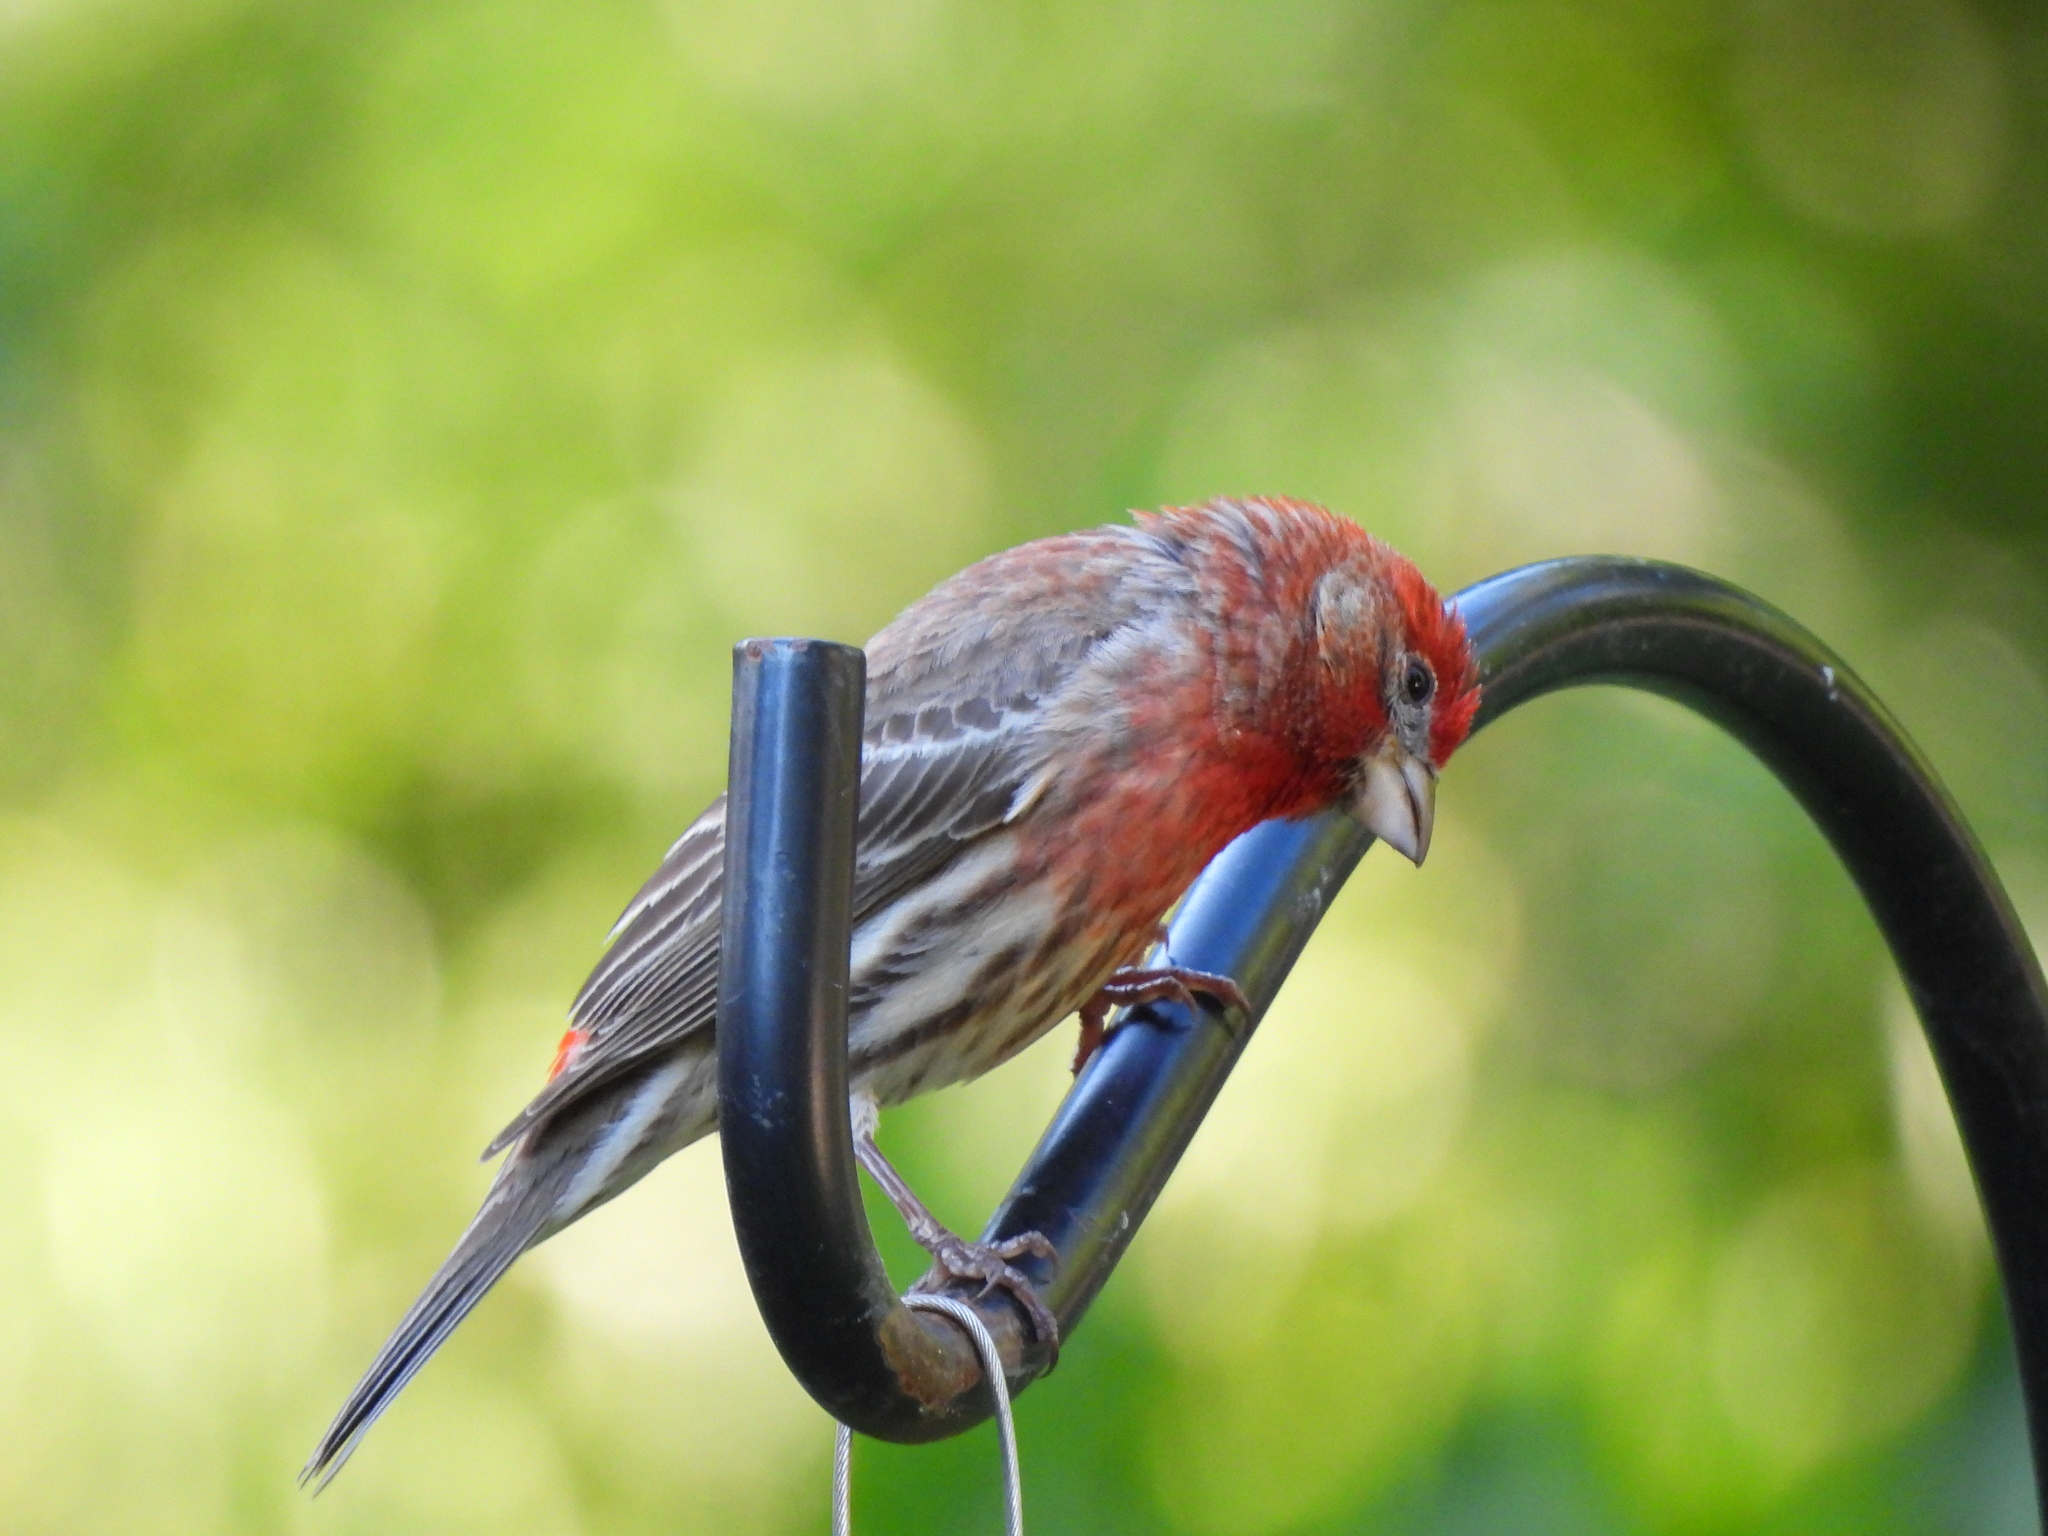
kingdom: Animalia
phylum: Chordata
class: Aves
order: Passeriformes
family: Fringillidae
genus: Haemorhous
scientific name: Haemorhous mexicanus
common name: House finch
